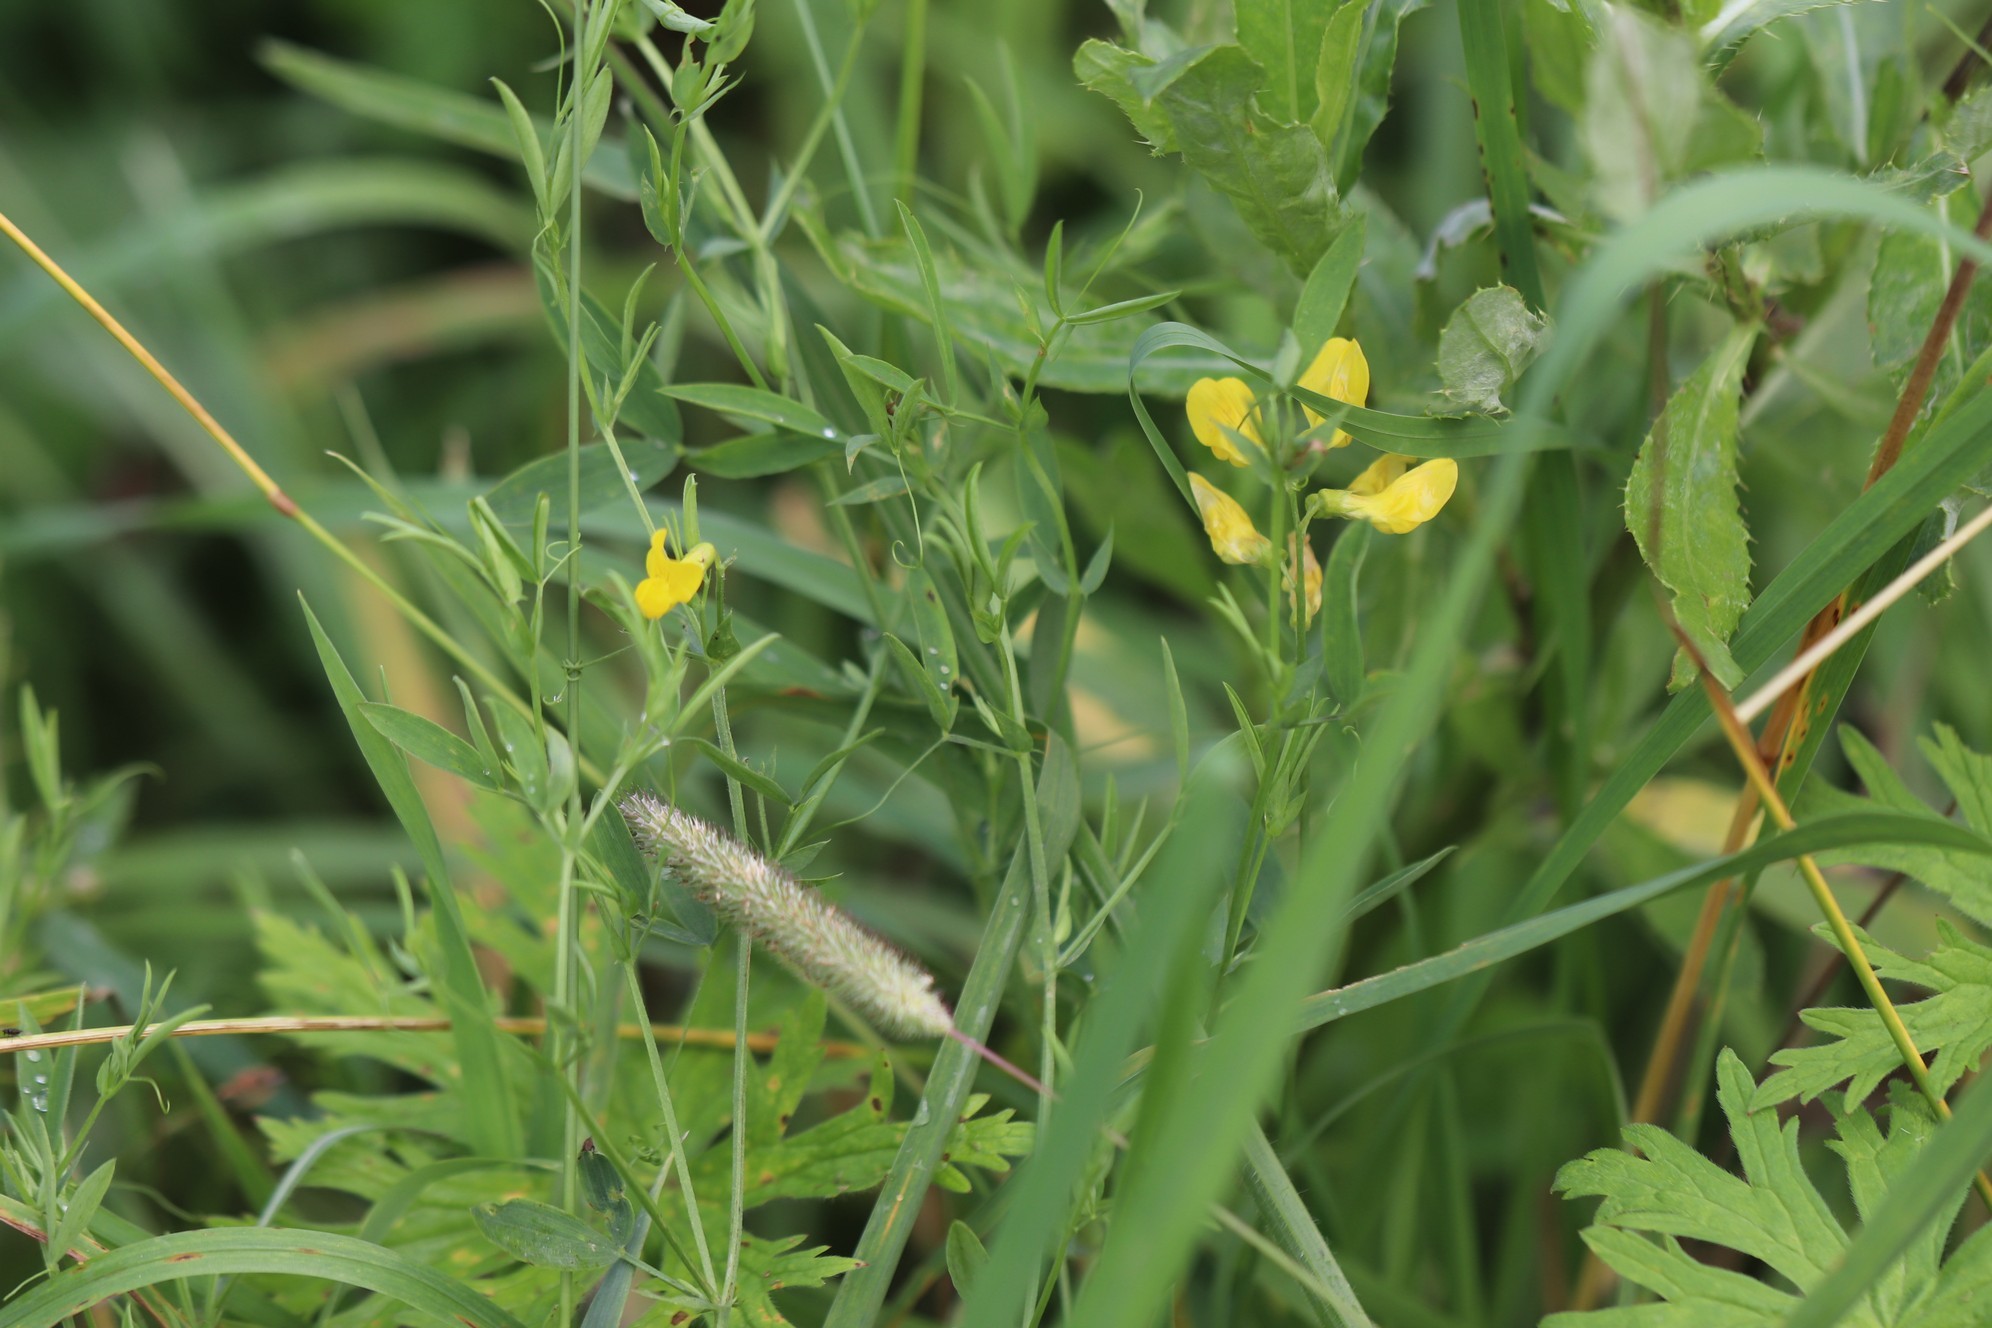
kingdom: Plantae
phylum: Tracheophyta
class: Magnoliopsida
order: Fabales
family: Fabaceae
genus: Lathyrus
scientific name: Lathyrus pratensis
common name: Meadow vetchling
